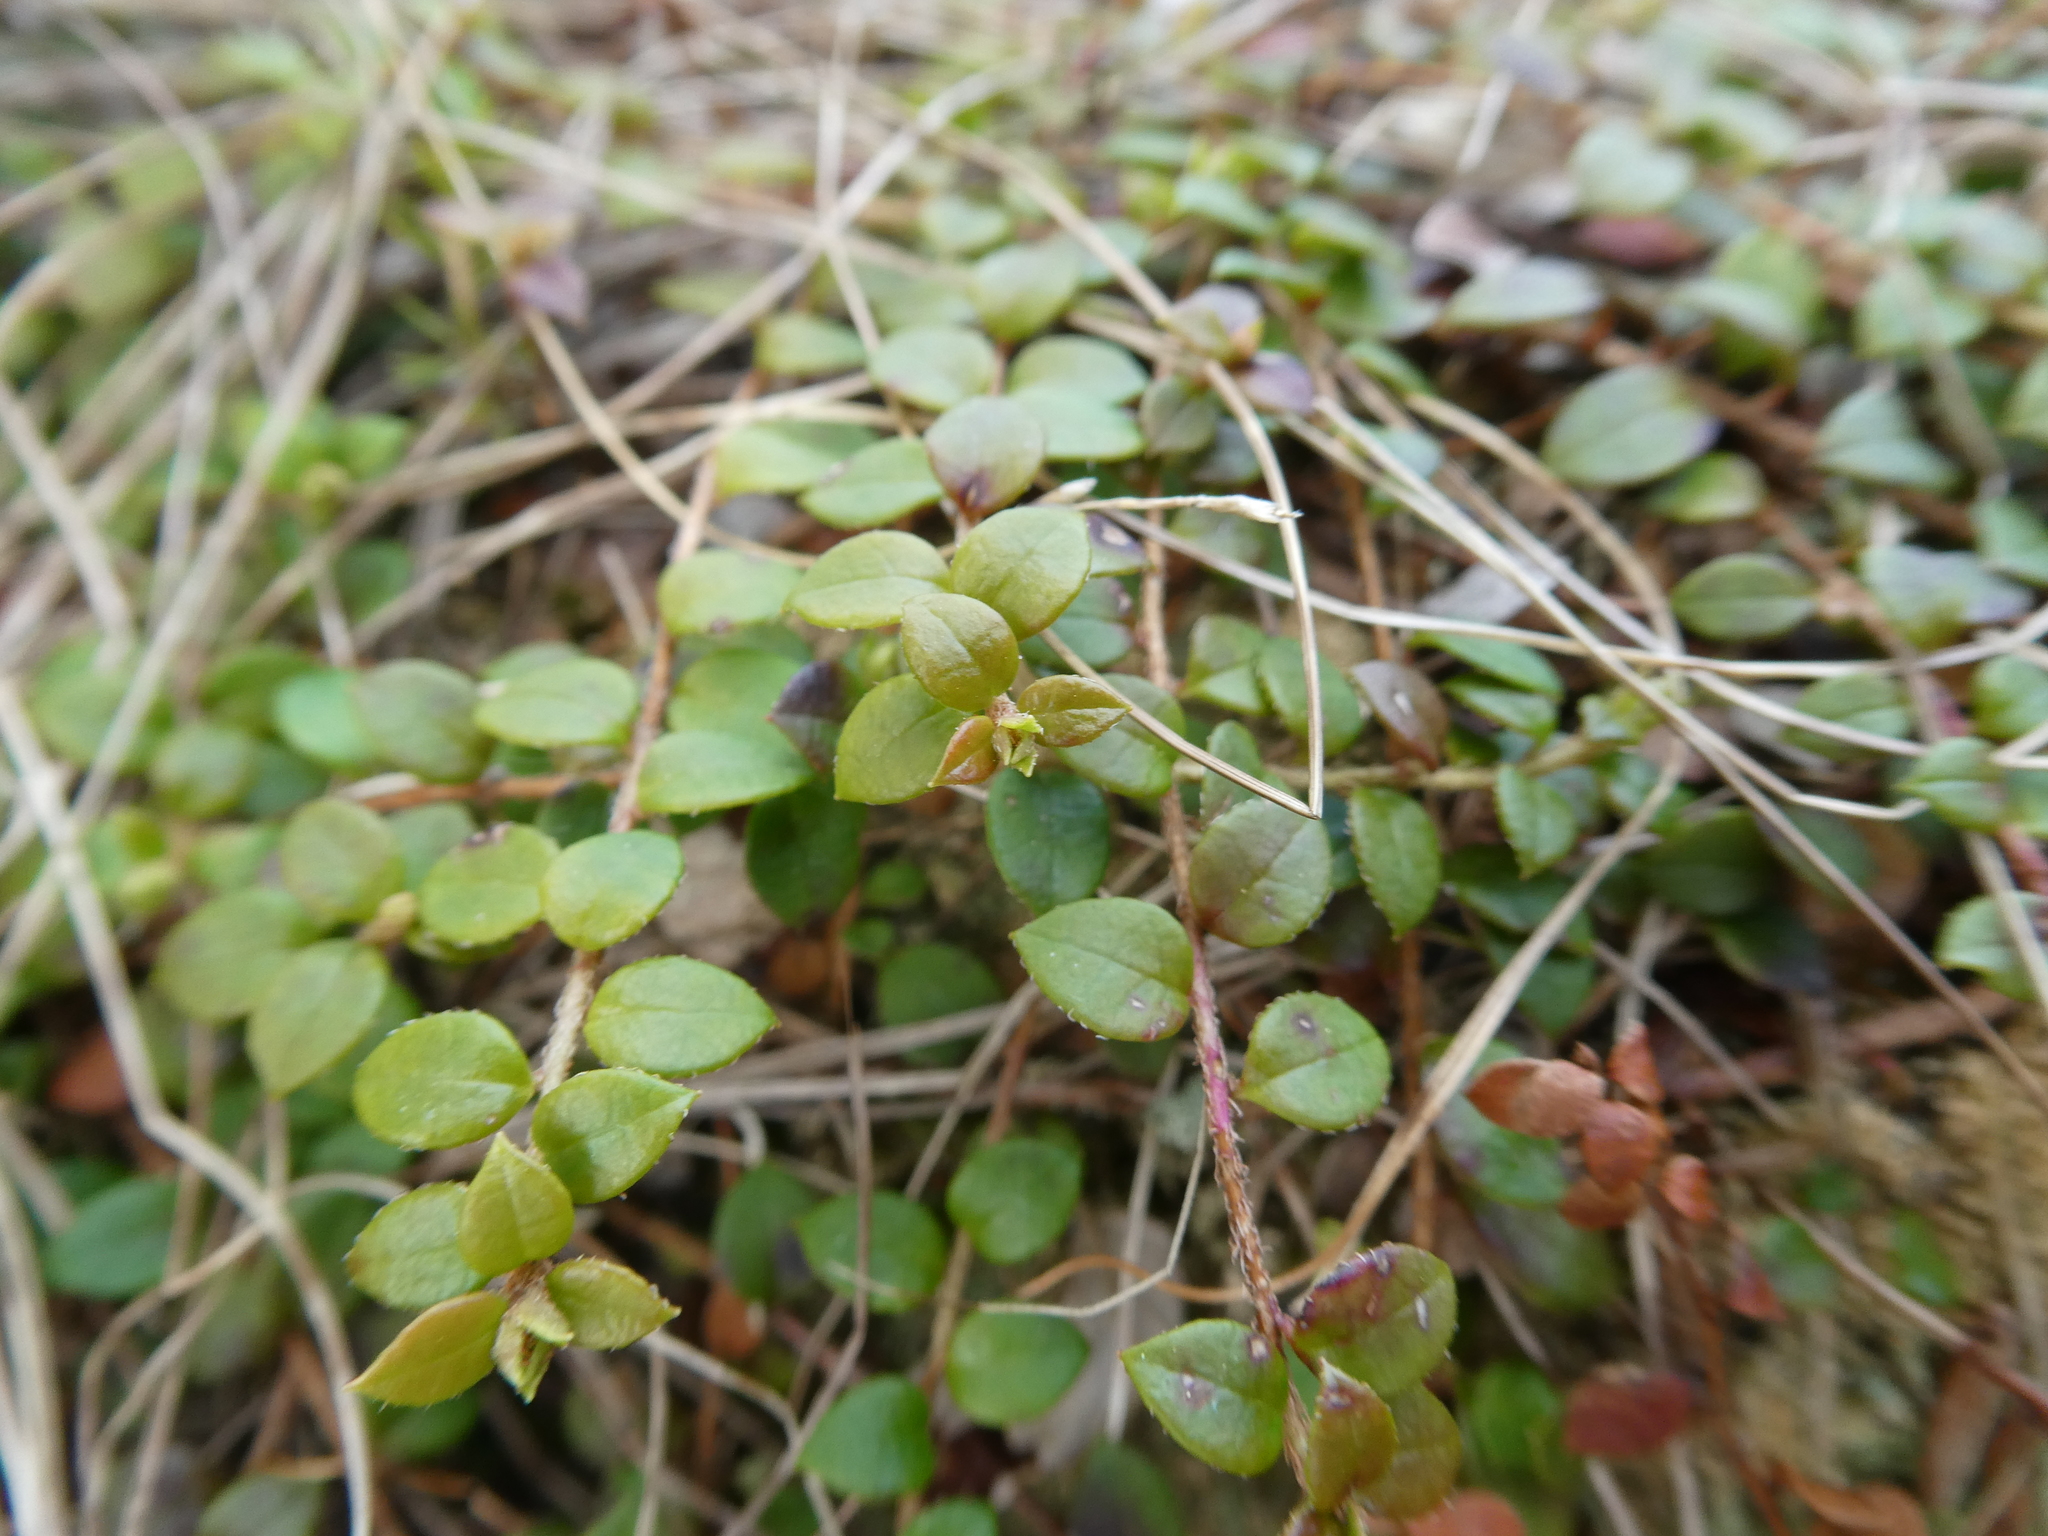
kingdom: Plantae
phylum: Tracheophyta
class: Magnoliopsida
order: Ericales
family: Ericaceae
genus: Gaultheria
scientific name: Gaultheria hispidula
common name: Cancer wintergreen
